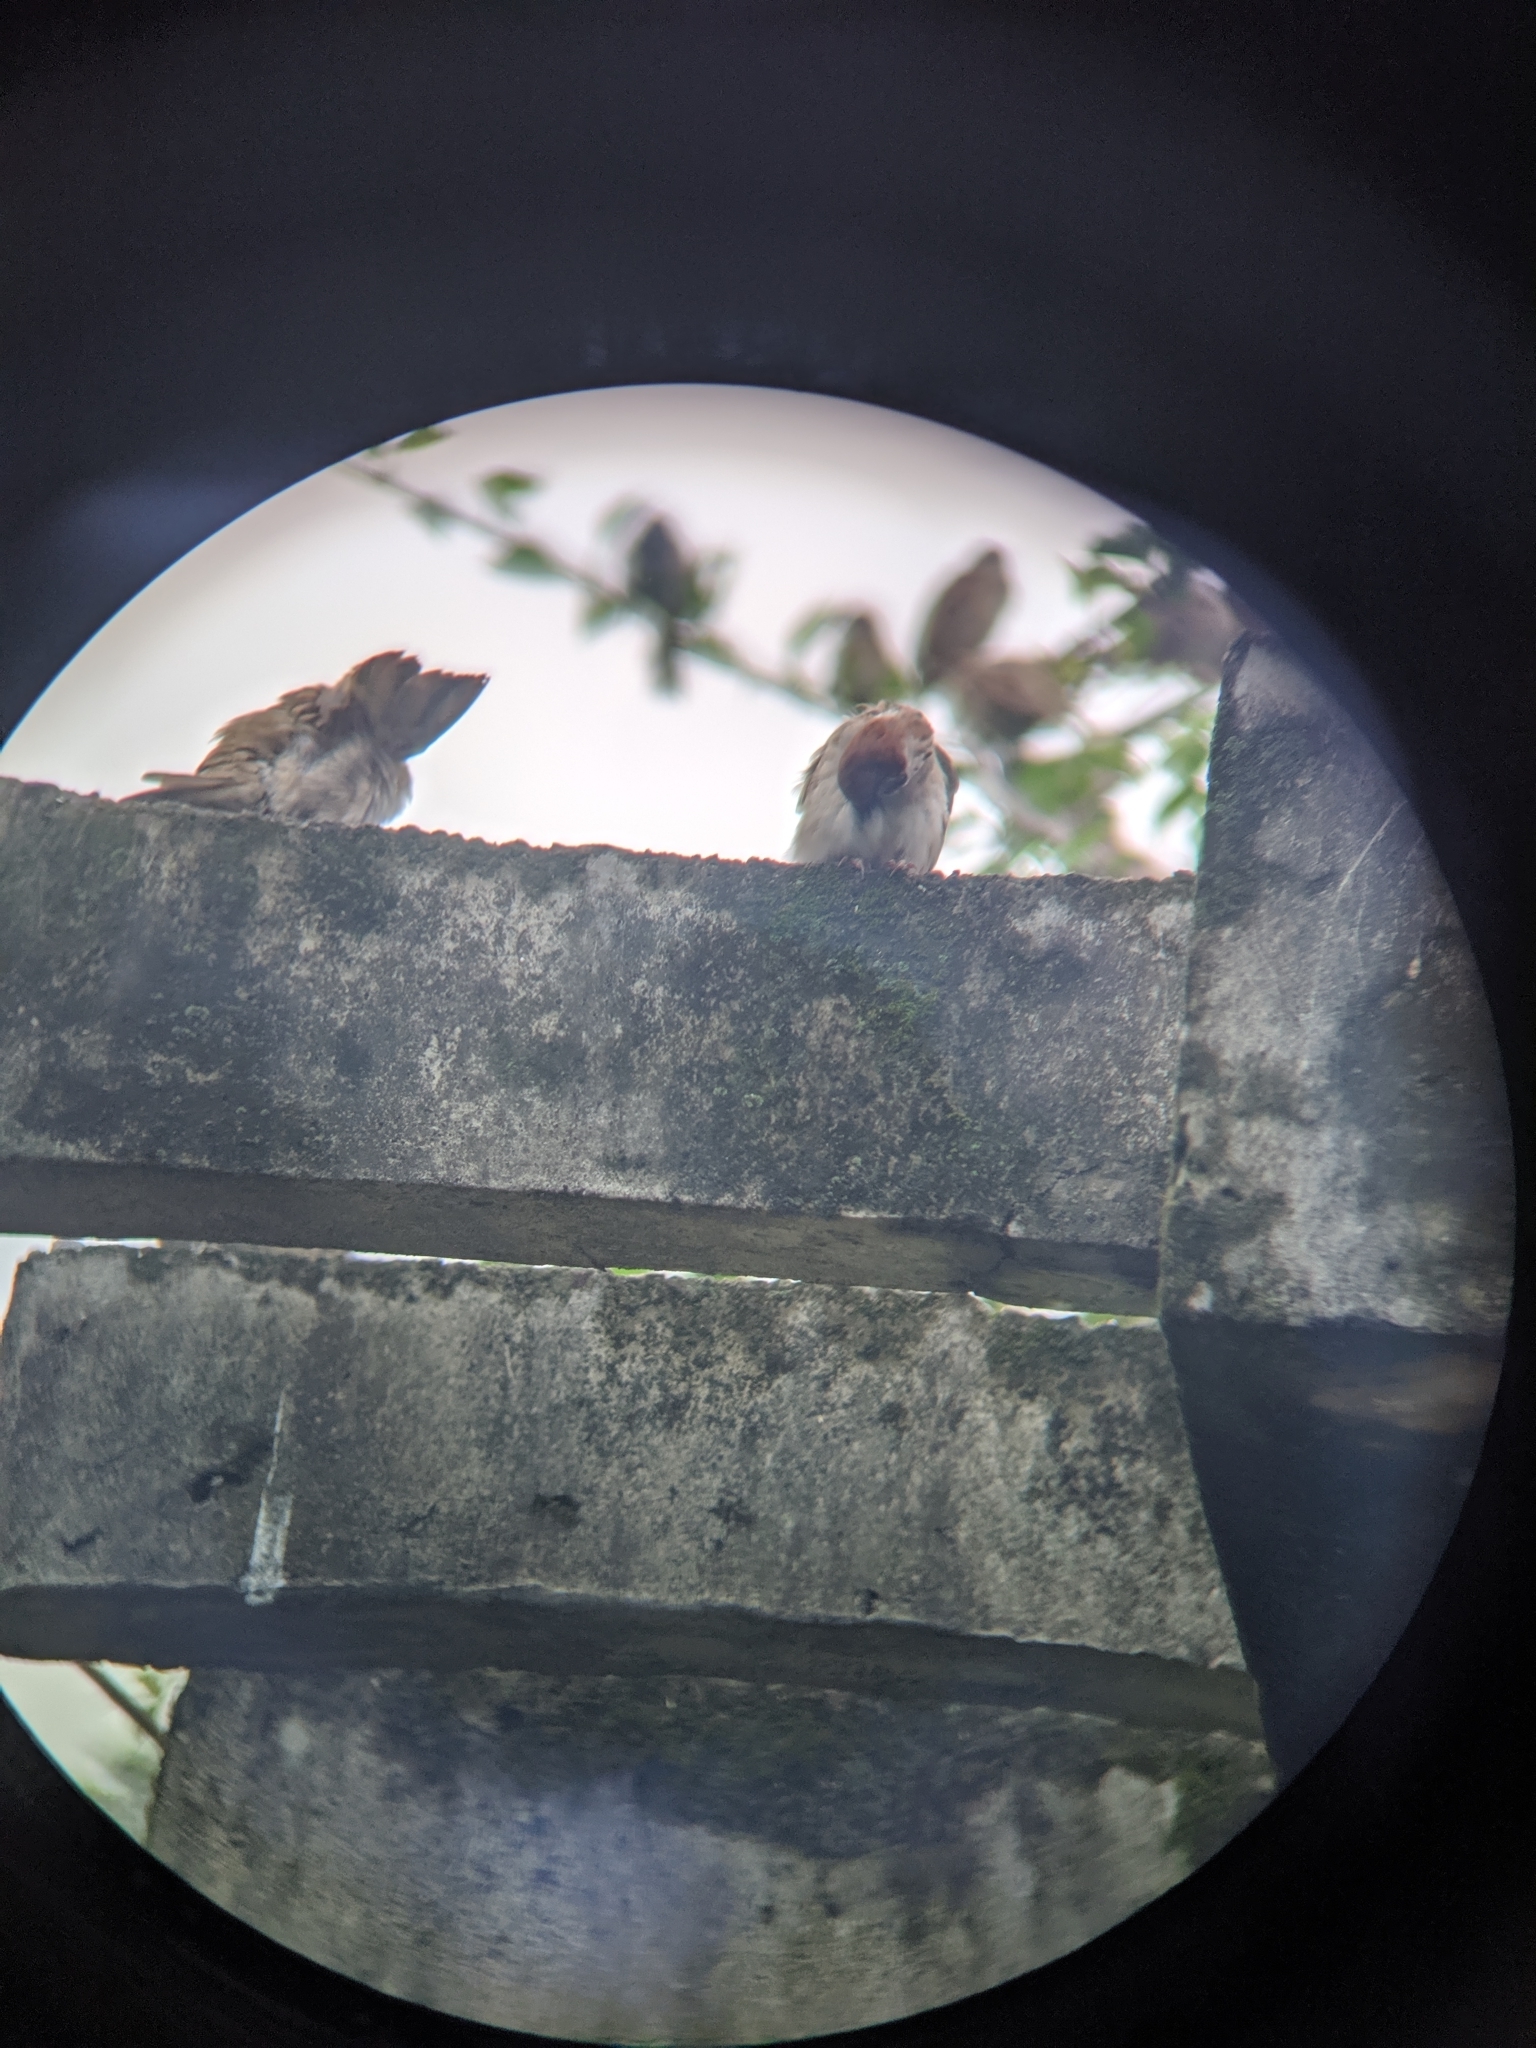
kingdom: Animalia
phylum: Chordata
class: Aves
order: Passeriformes
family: Passeridae
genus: Passer
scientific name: Passer montanus
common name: Eurasian tree sparrow
